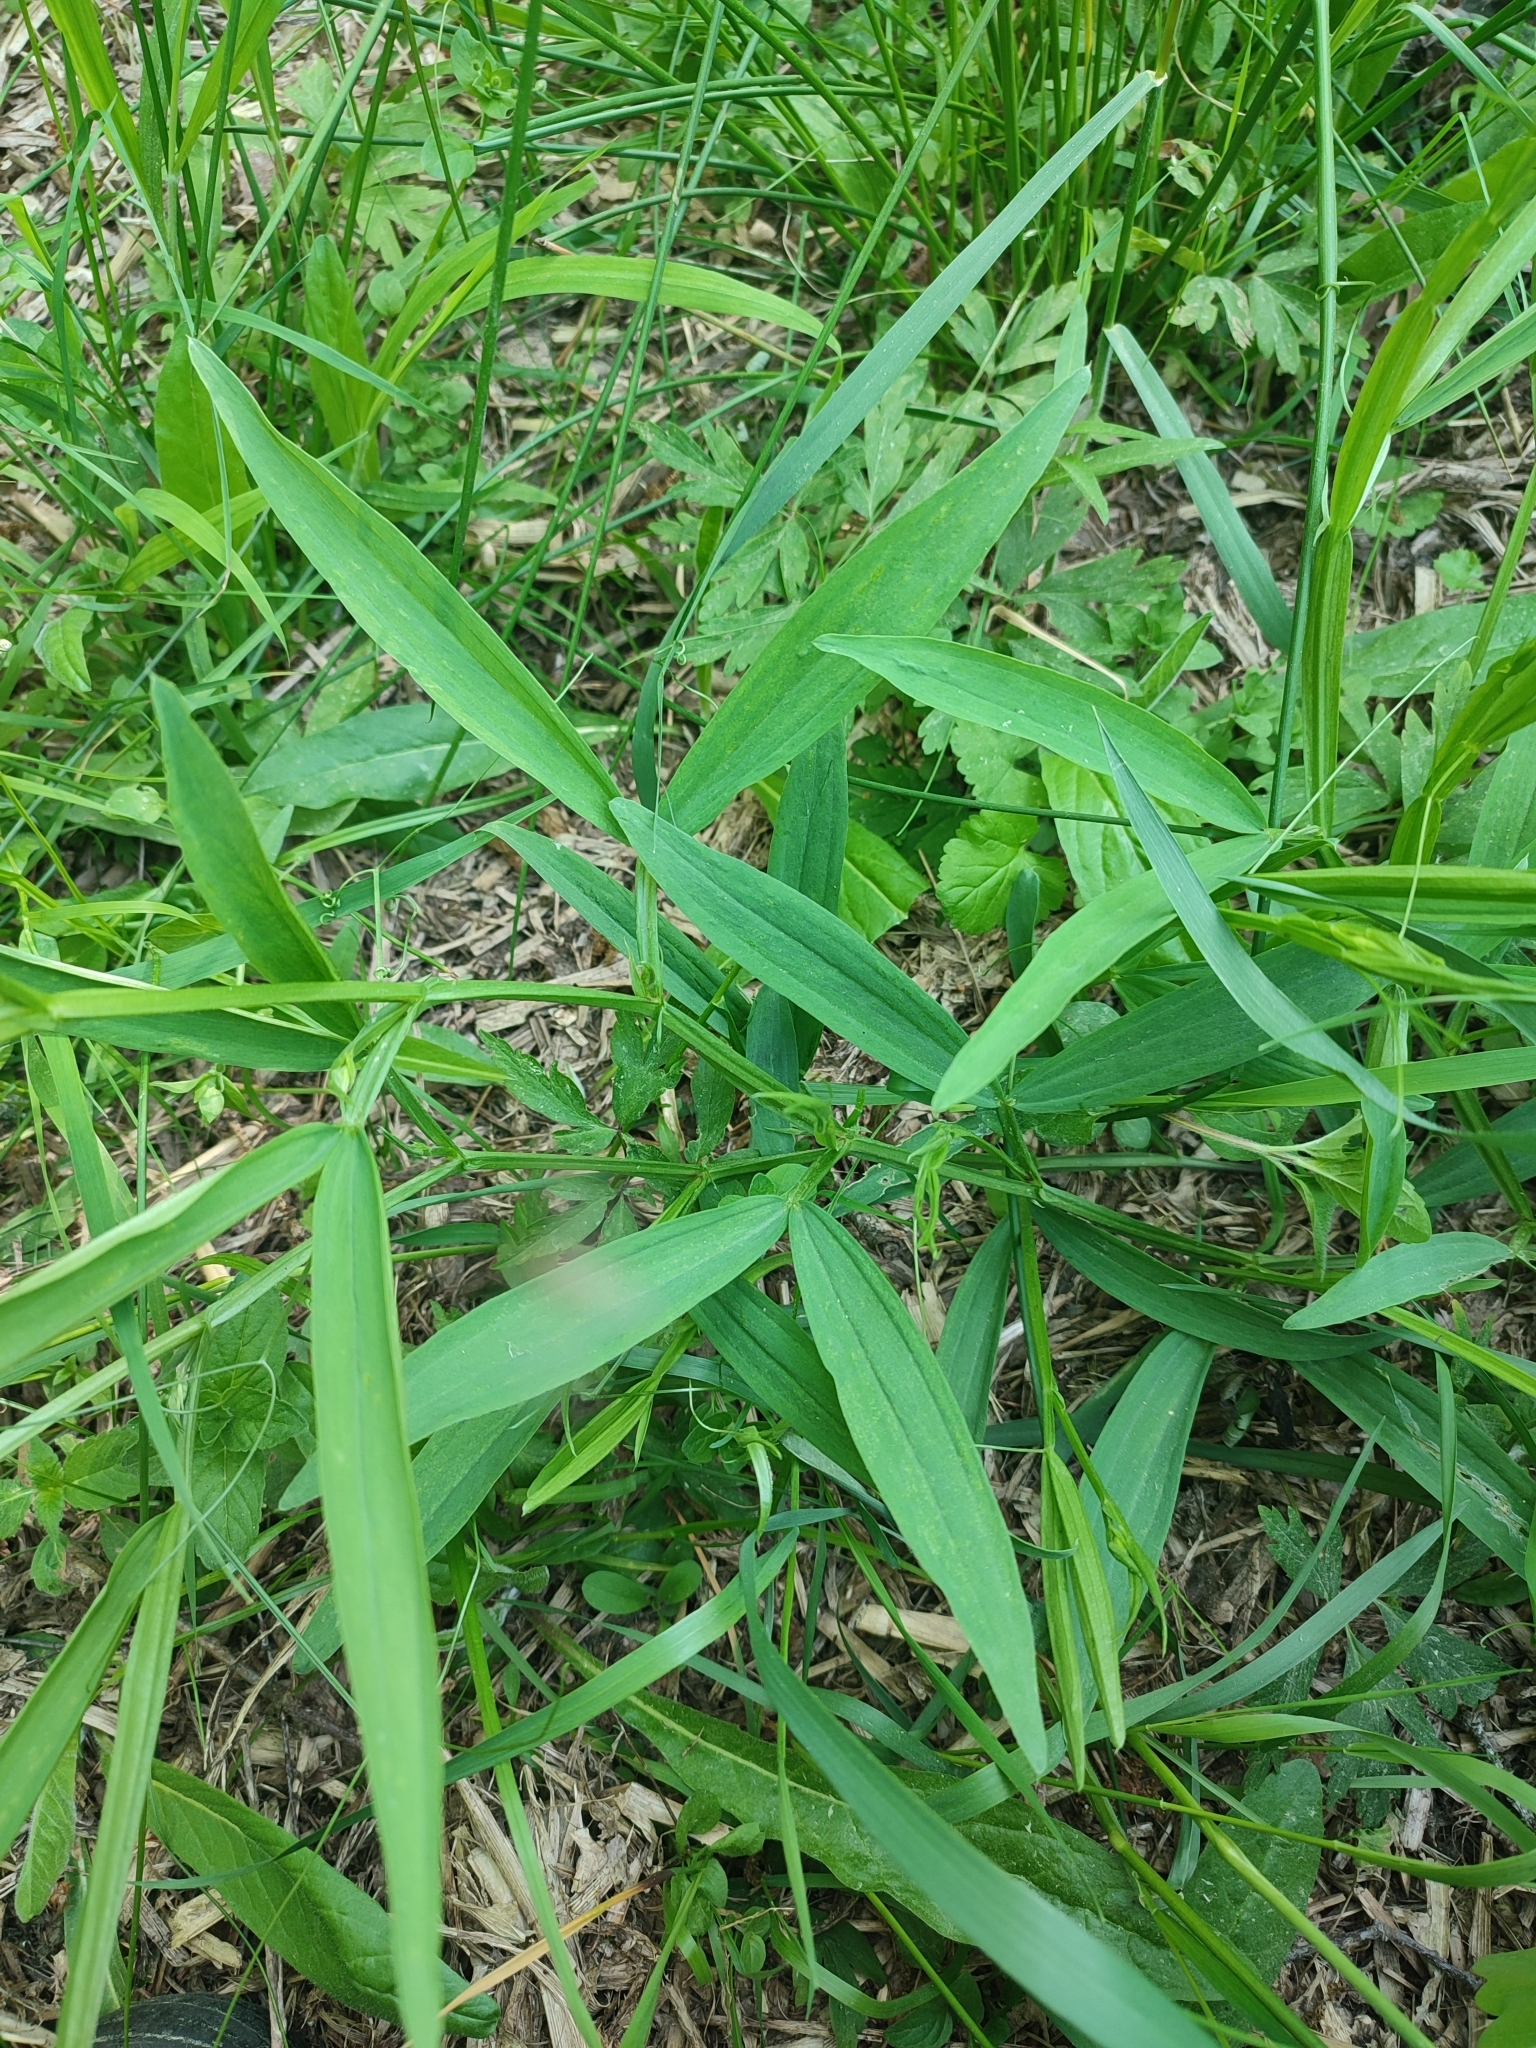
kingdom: Plantae
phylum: Tracheophyta
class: Magnoliopsida
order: Fabales
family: Fabaceae
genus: Lathyrus
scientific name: Lathyrus sylvestris
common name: Flat pea
